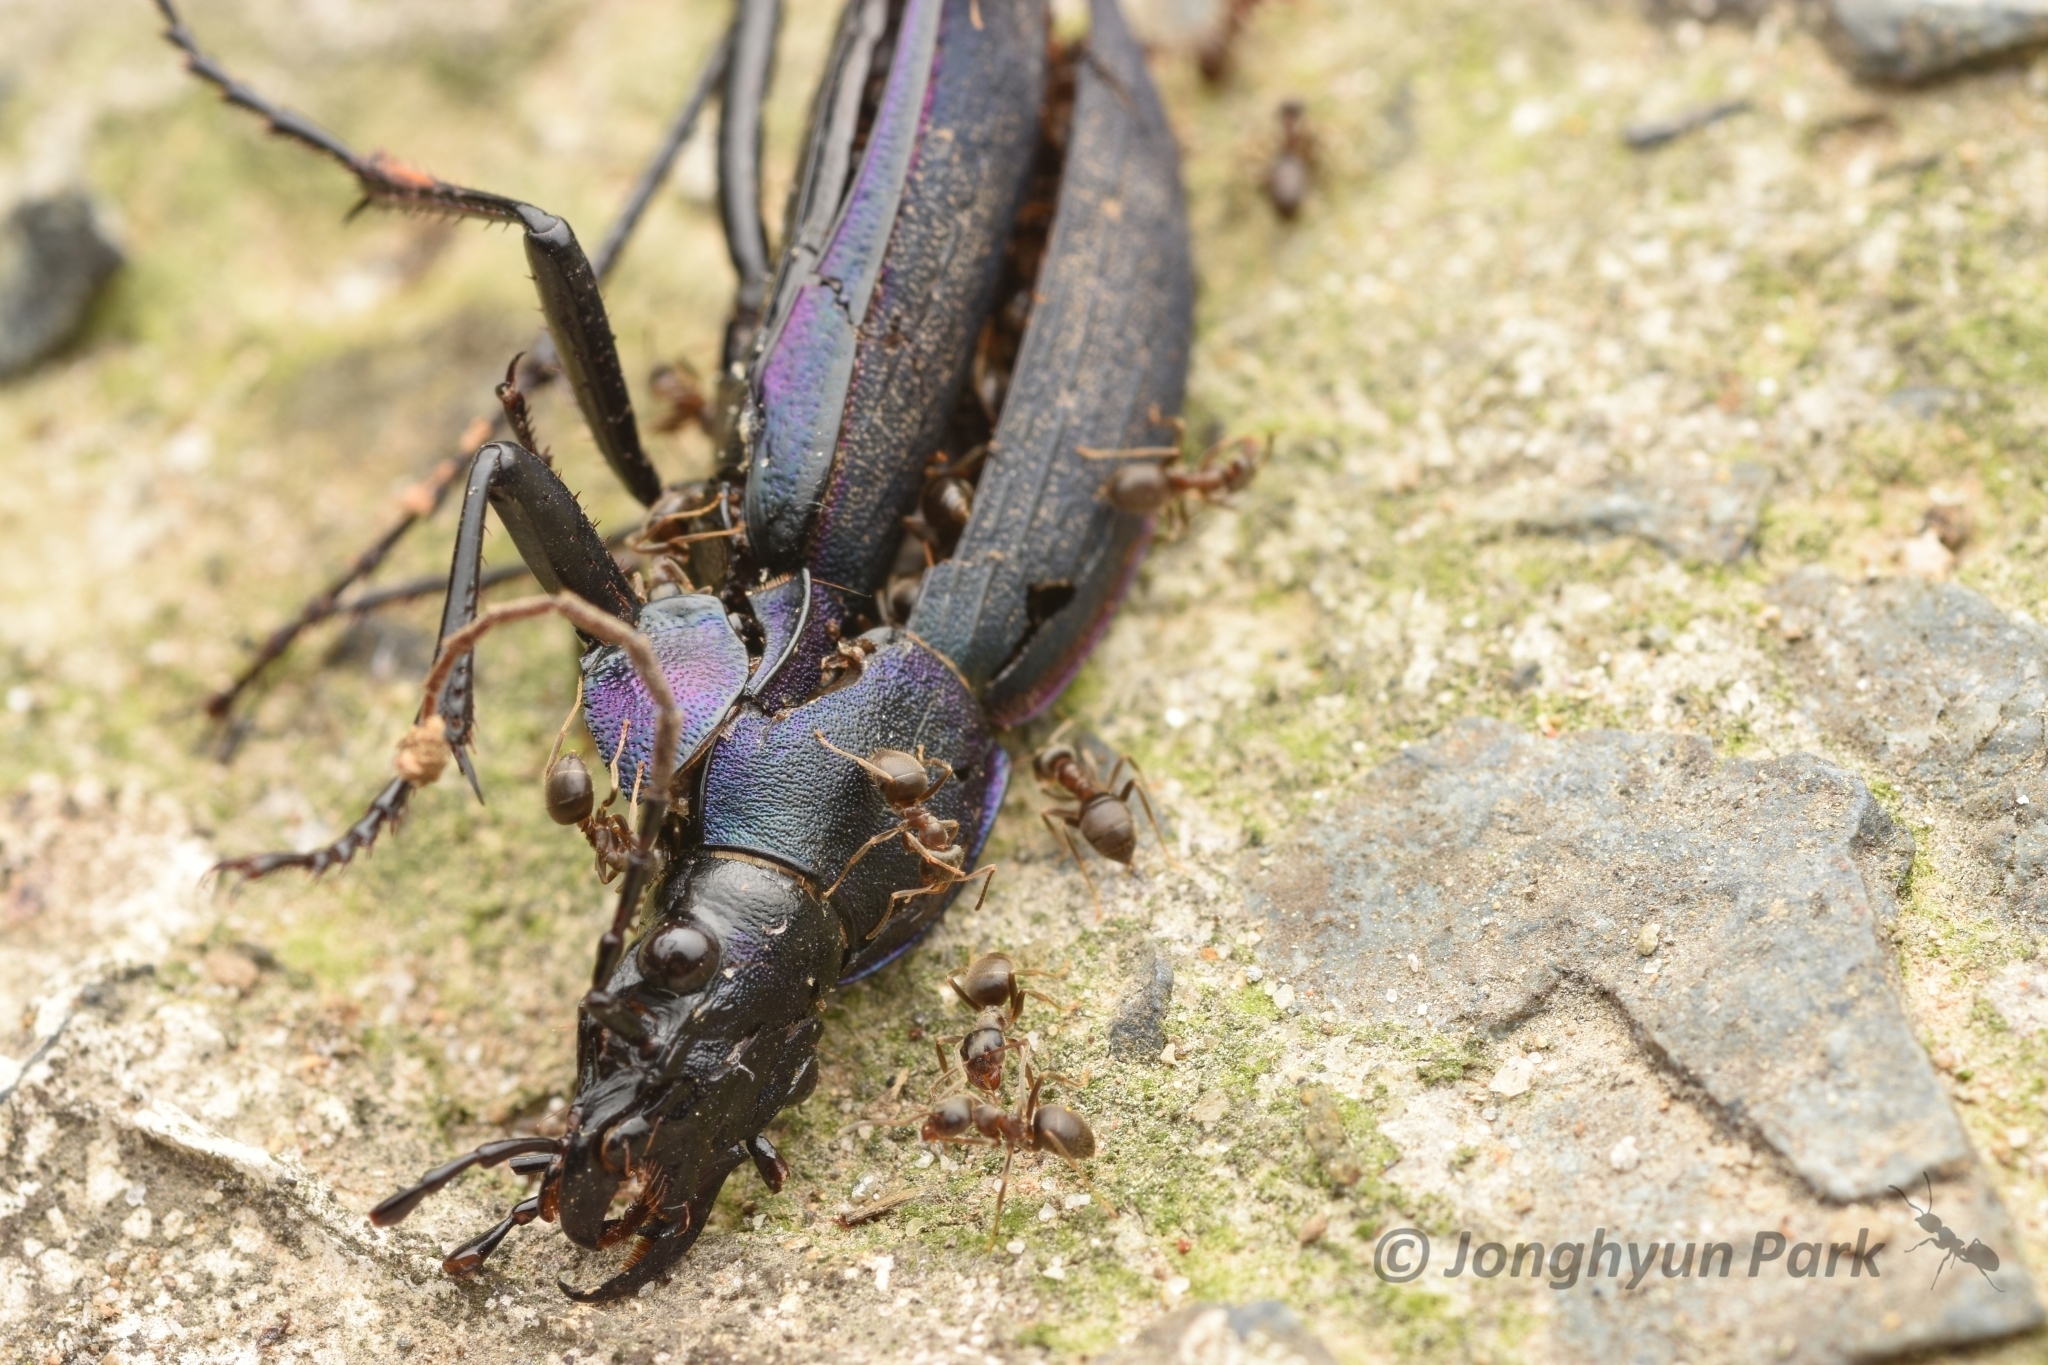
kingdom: Animalia
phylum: Arthropoda
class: Insecta
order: Coleoptera
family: Carabidae
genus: Carabus
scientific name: Carabus jankowskii
